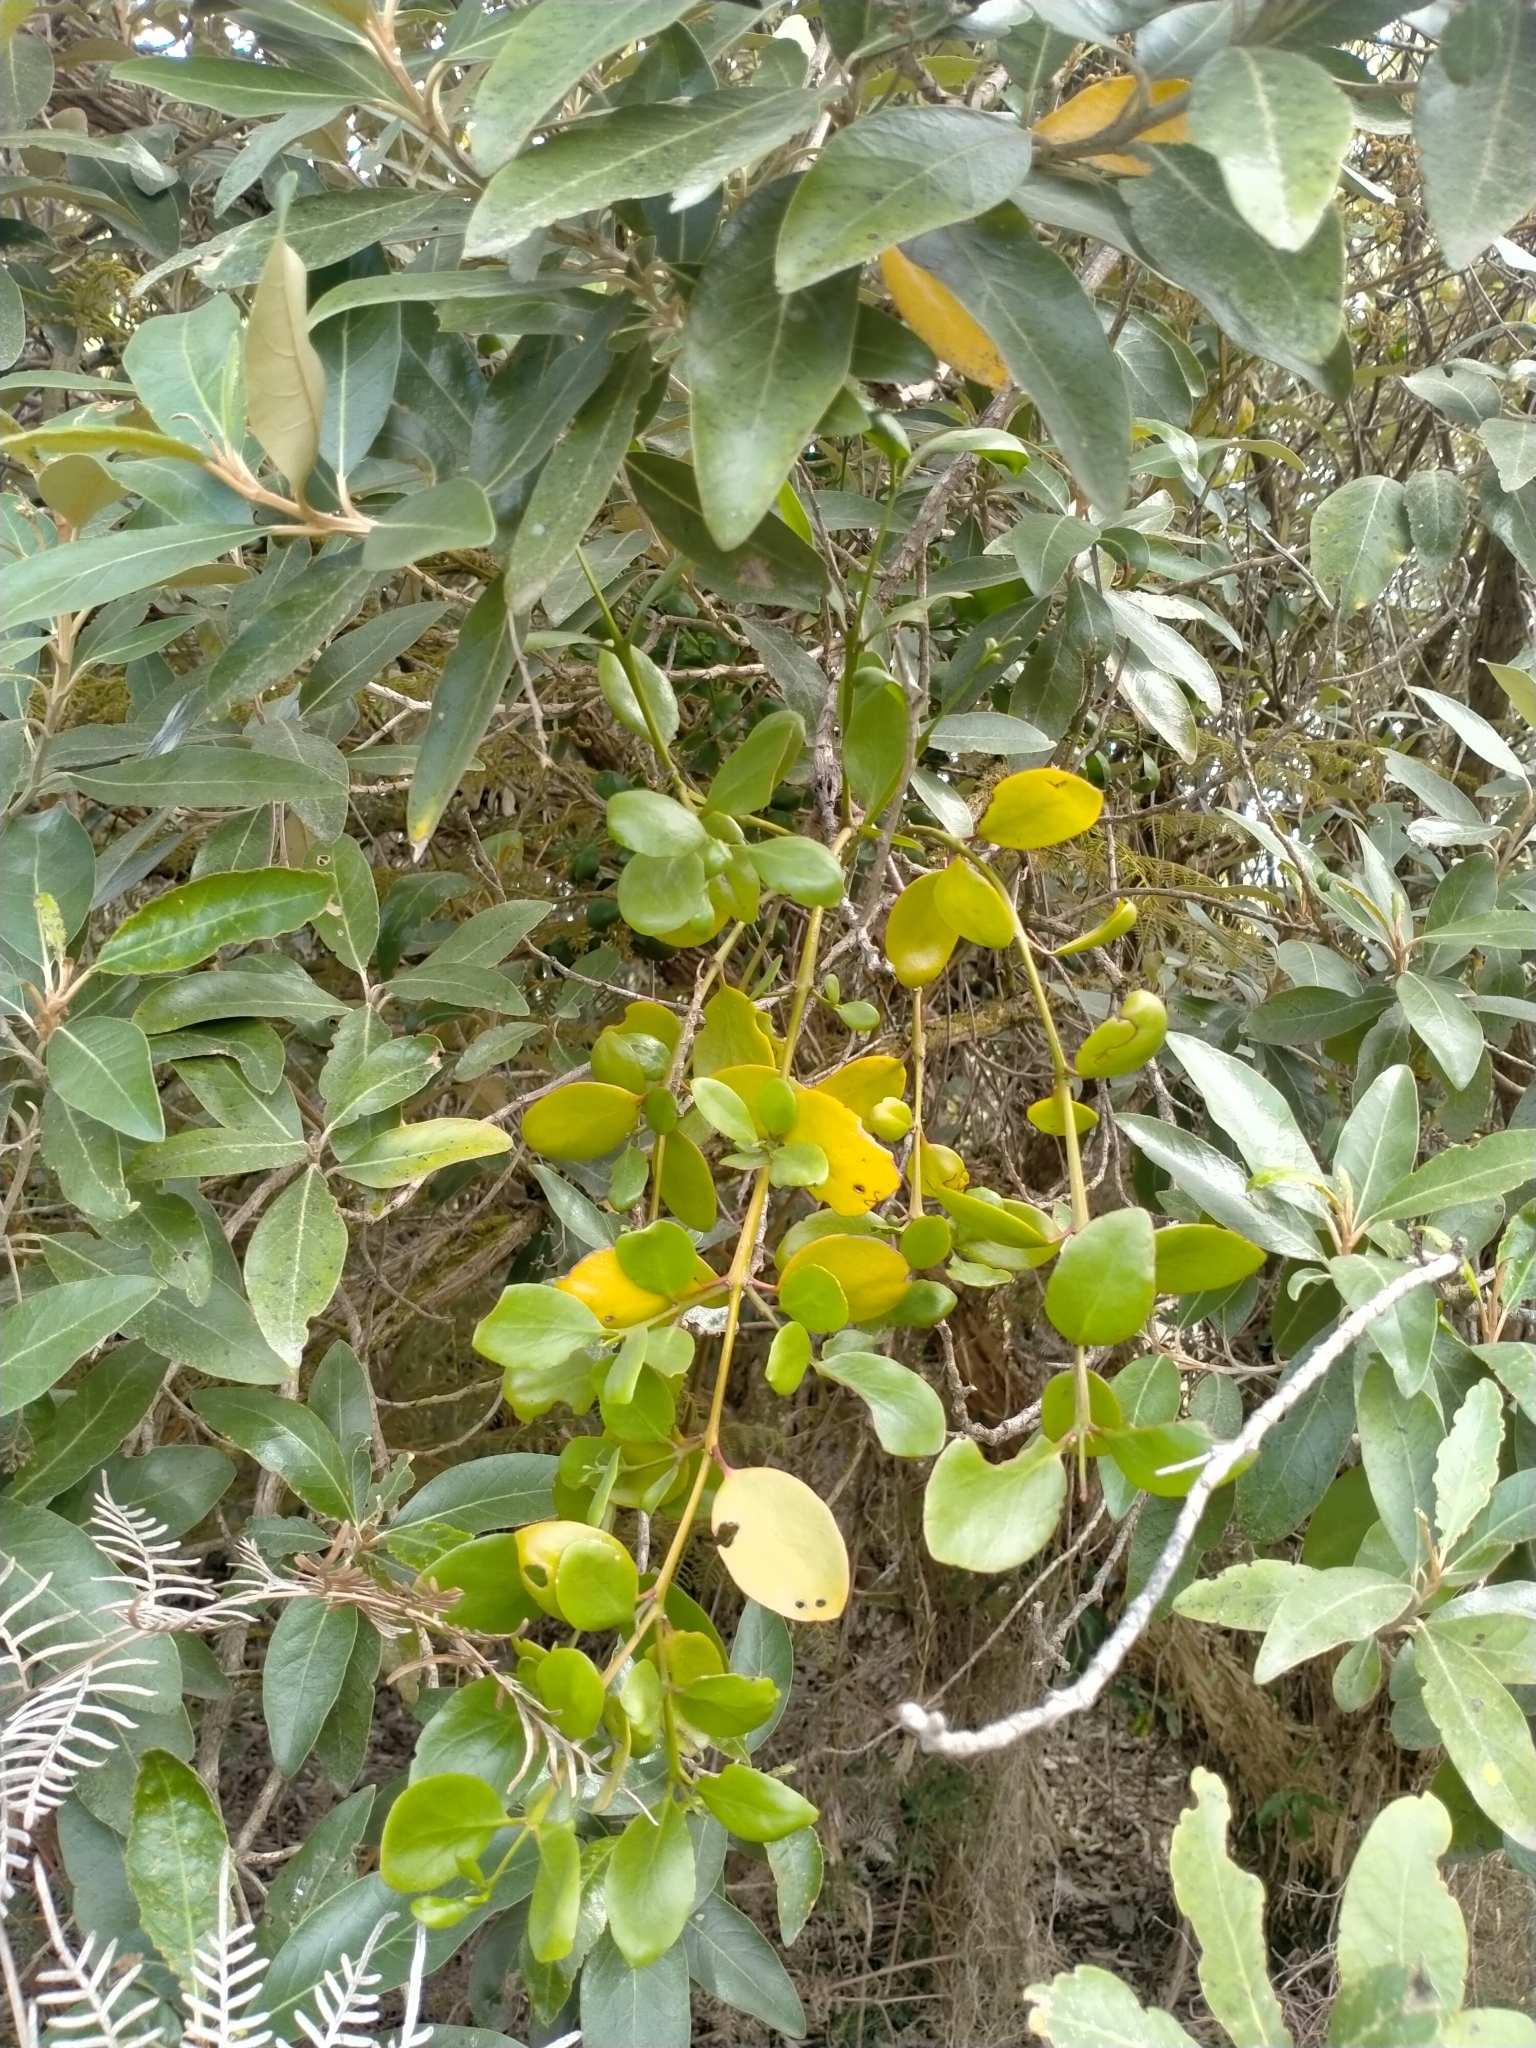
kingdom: Plantae
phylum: Tracheophyta
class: Magnoliopsida
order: Santalales
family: Loranthaceae
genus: Ileostylus
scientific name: Ileostylus micranthus
